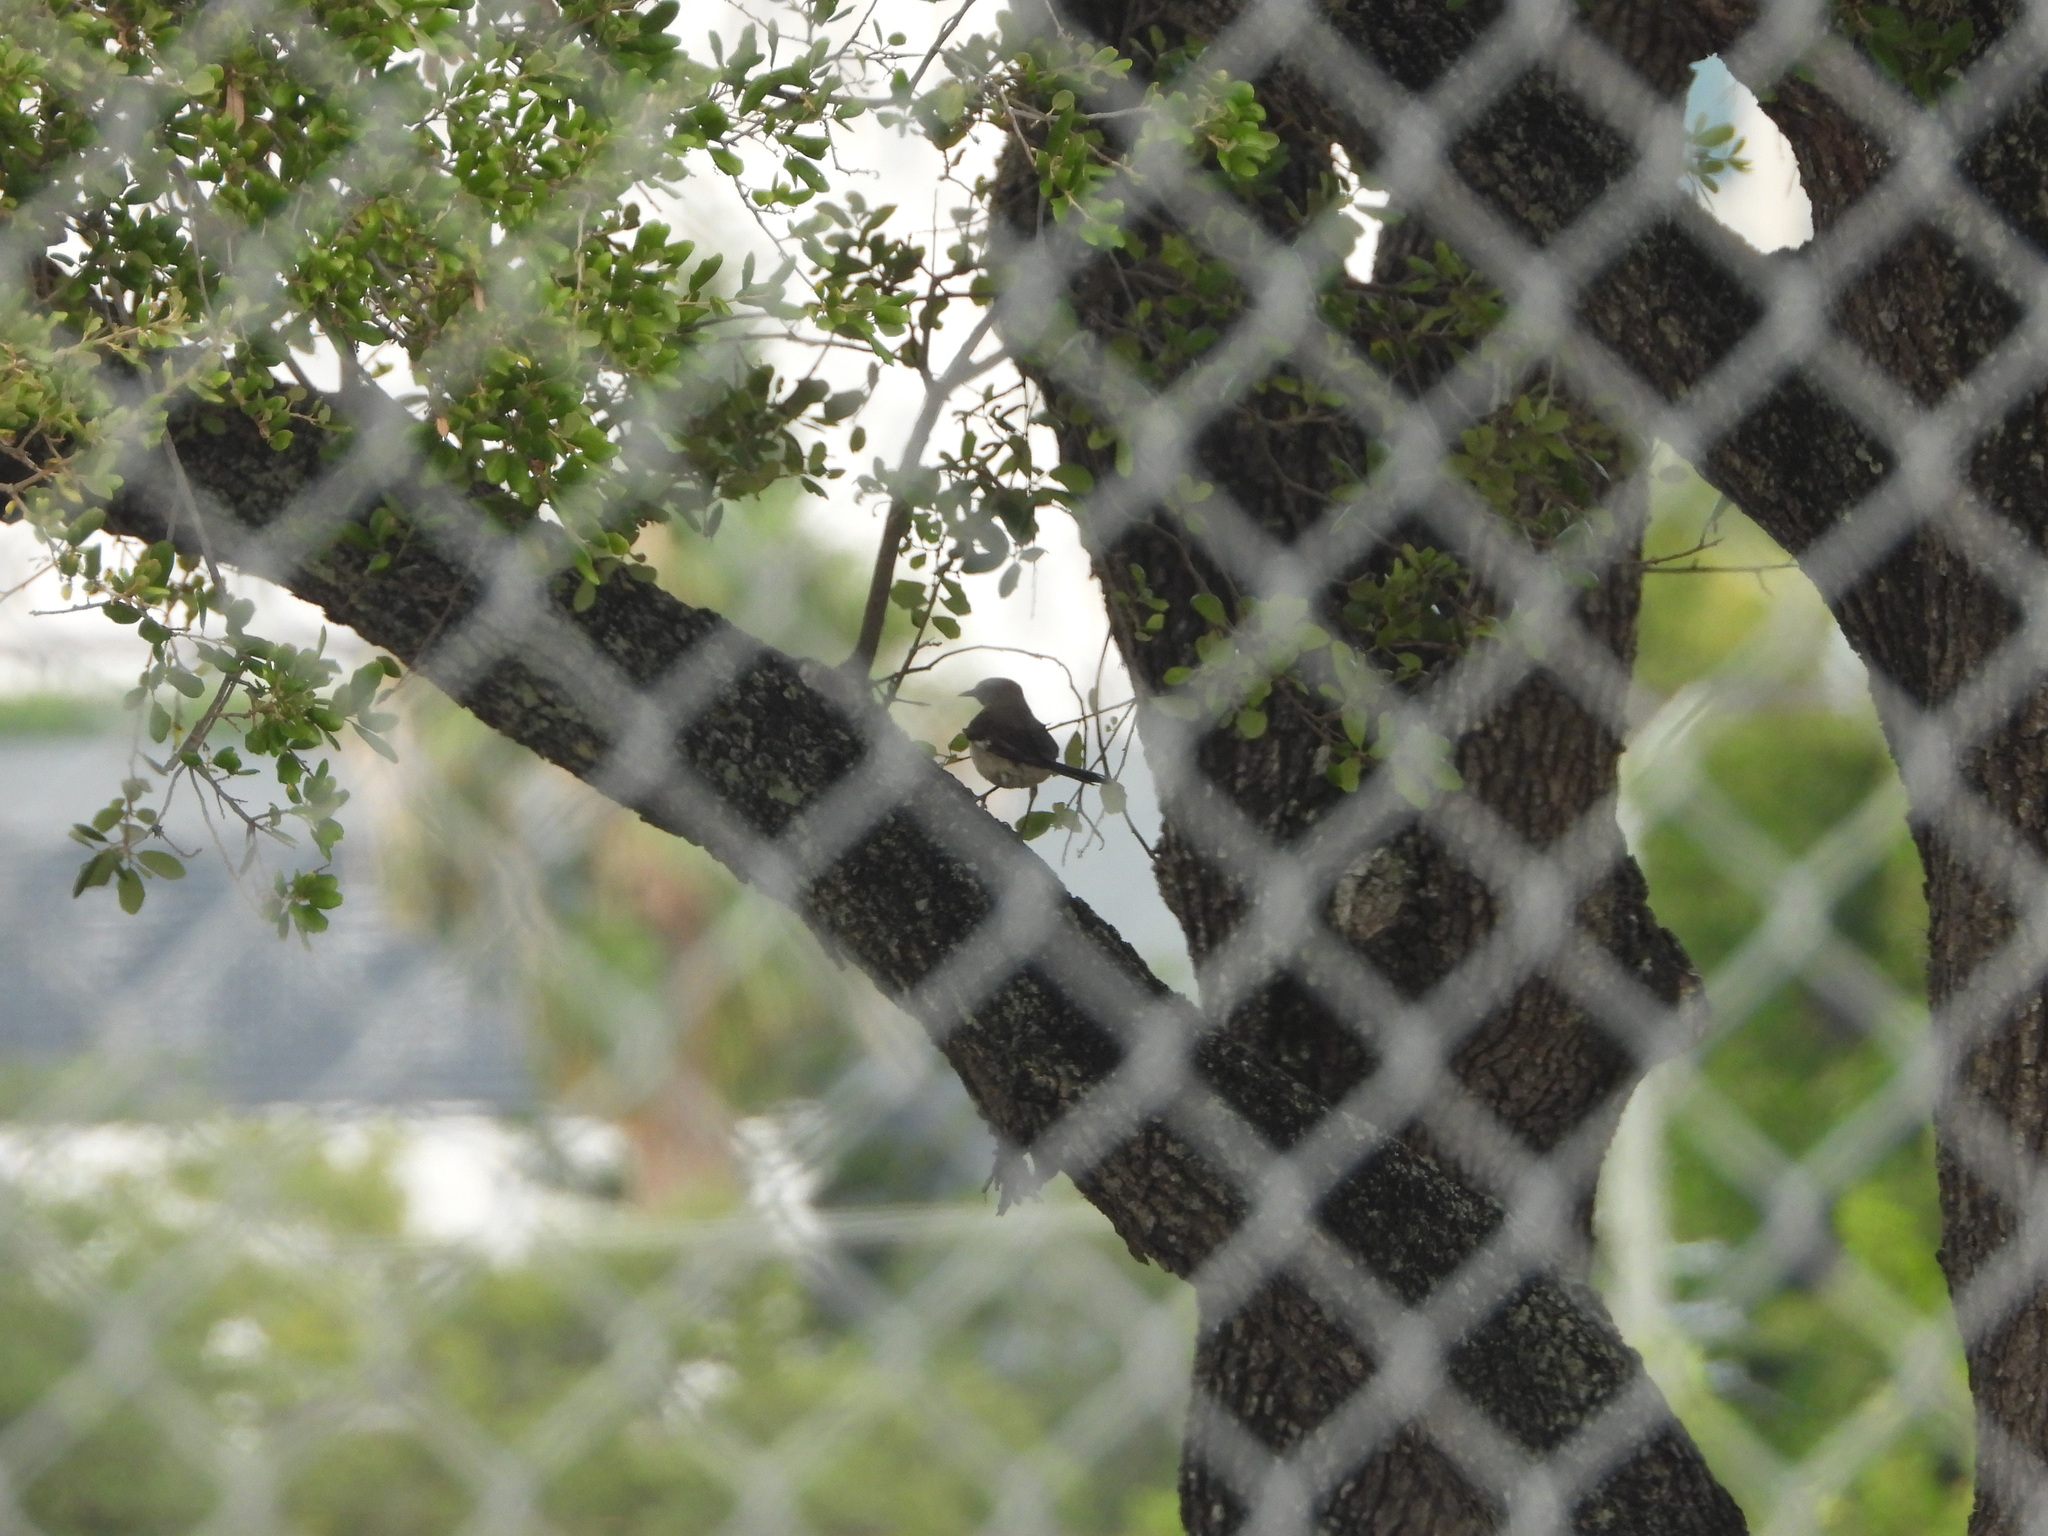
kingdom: Animalia
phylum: Chordata
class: Aves
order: Passeriformes
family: Mimidae
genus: Mimus
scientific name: Mimus polyglottos
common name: Northern mockingbird
